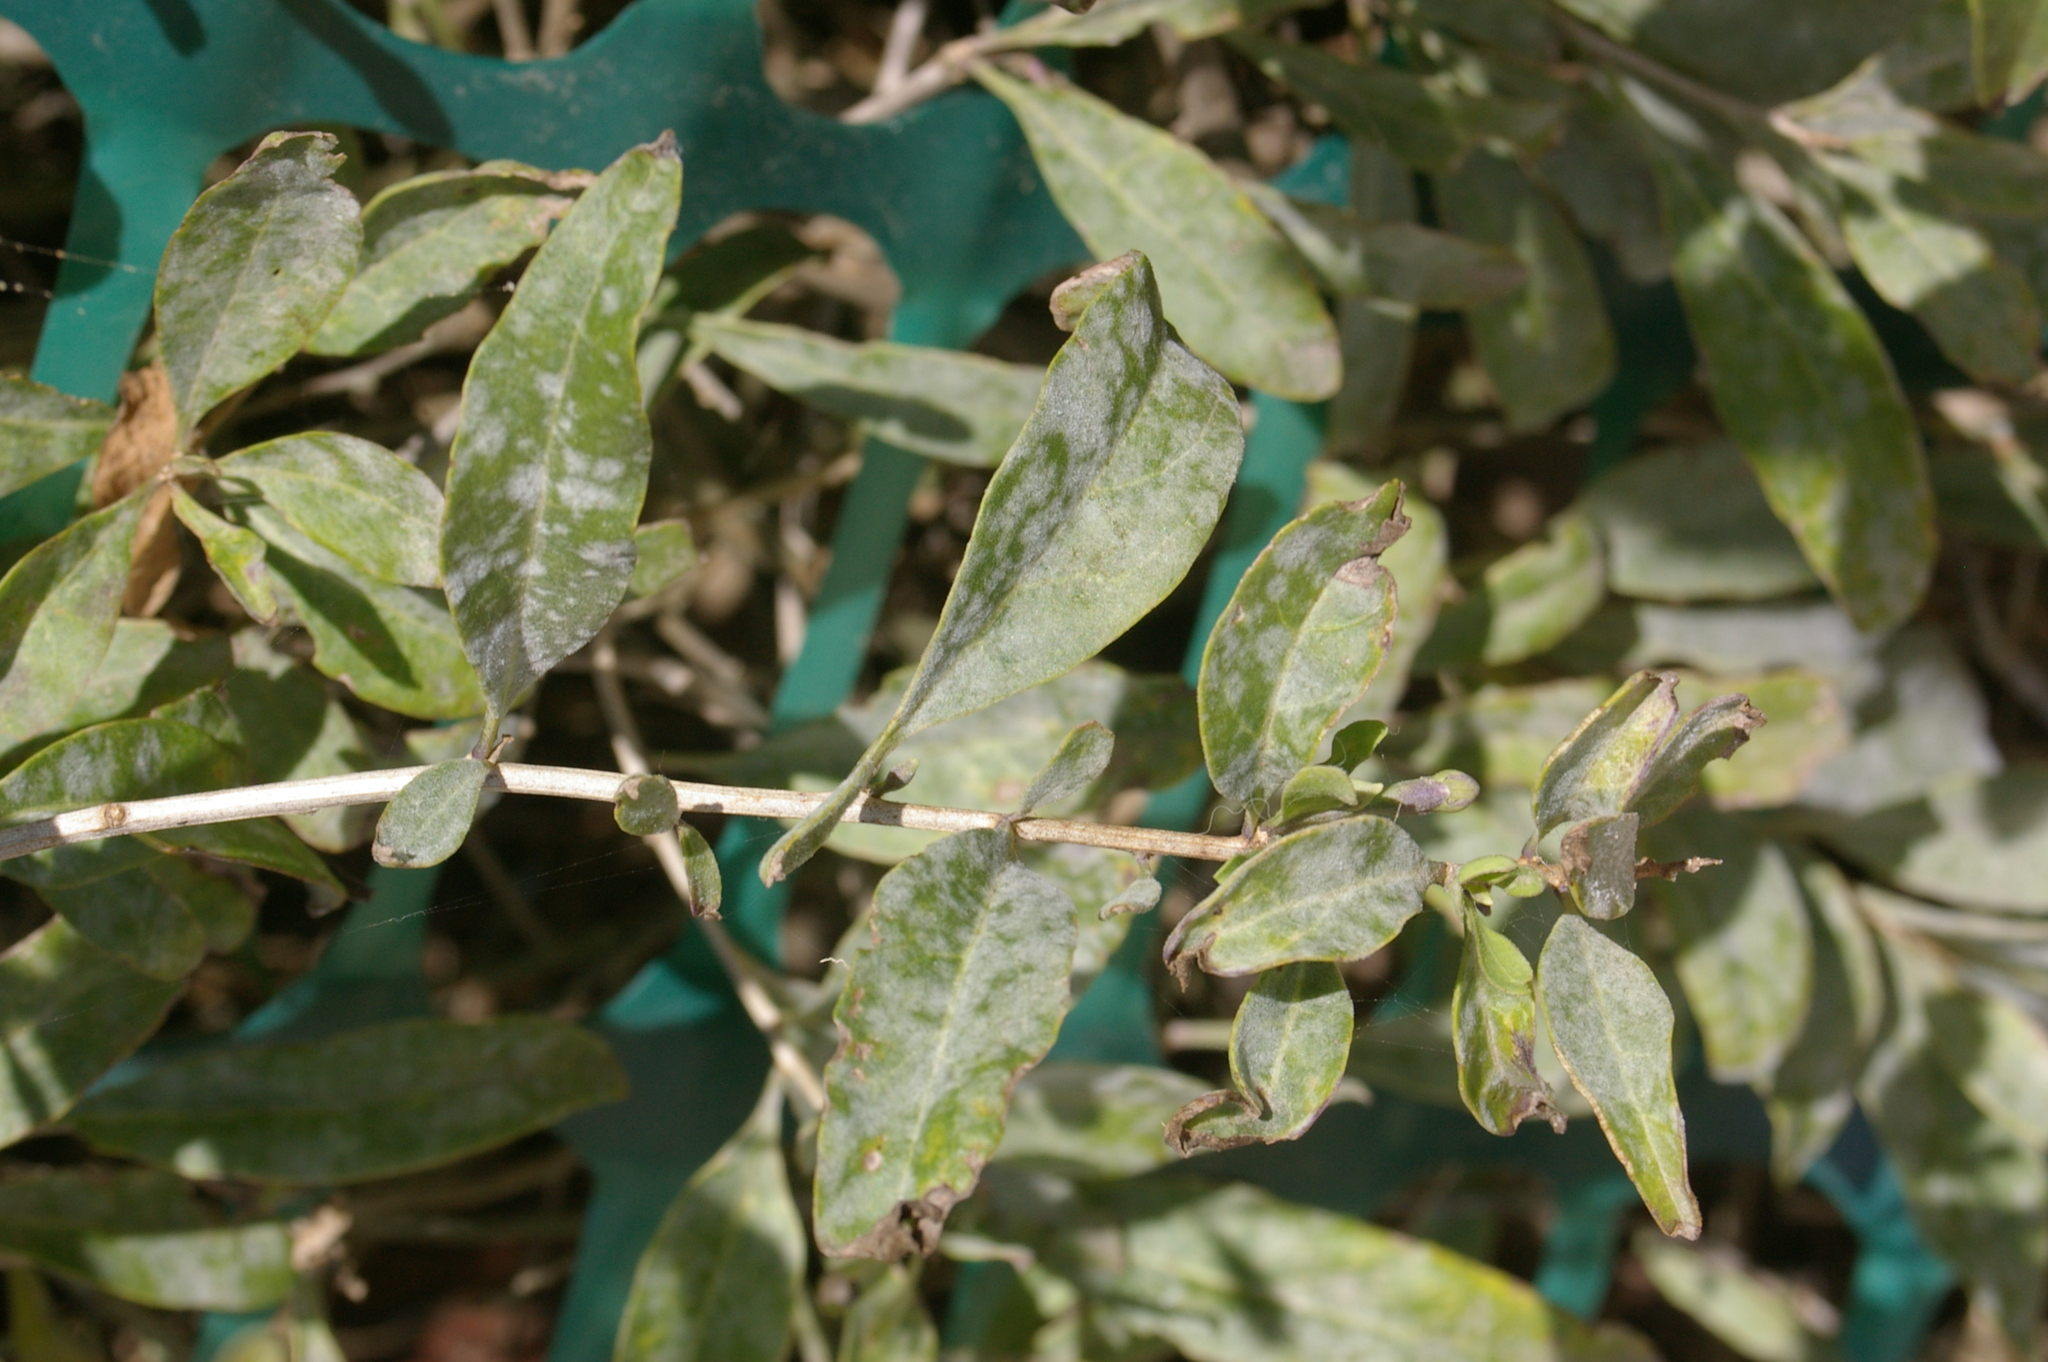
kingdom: Fungi
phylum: Ascomycota
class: Leotiomycetes
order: Helotiales
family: Erysiphaceae
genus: Erysiphe
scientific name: Erysiphe mougeotii
